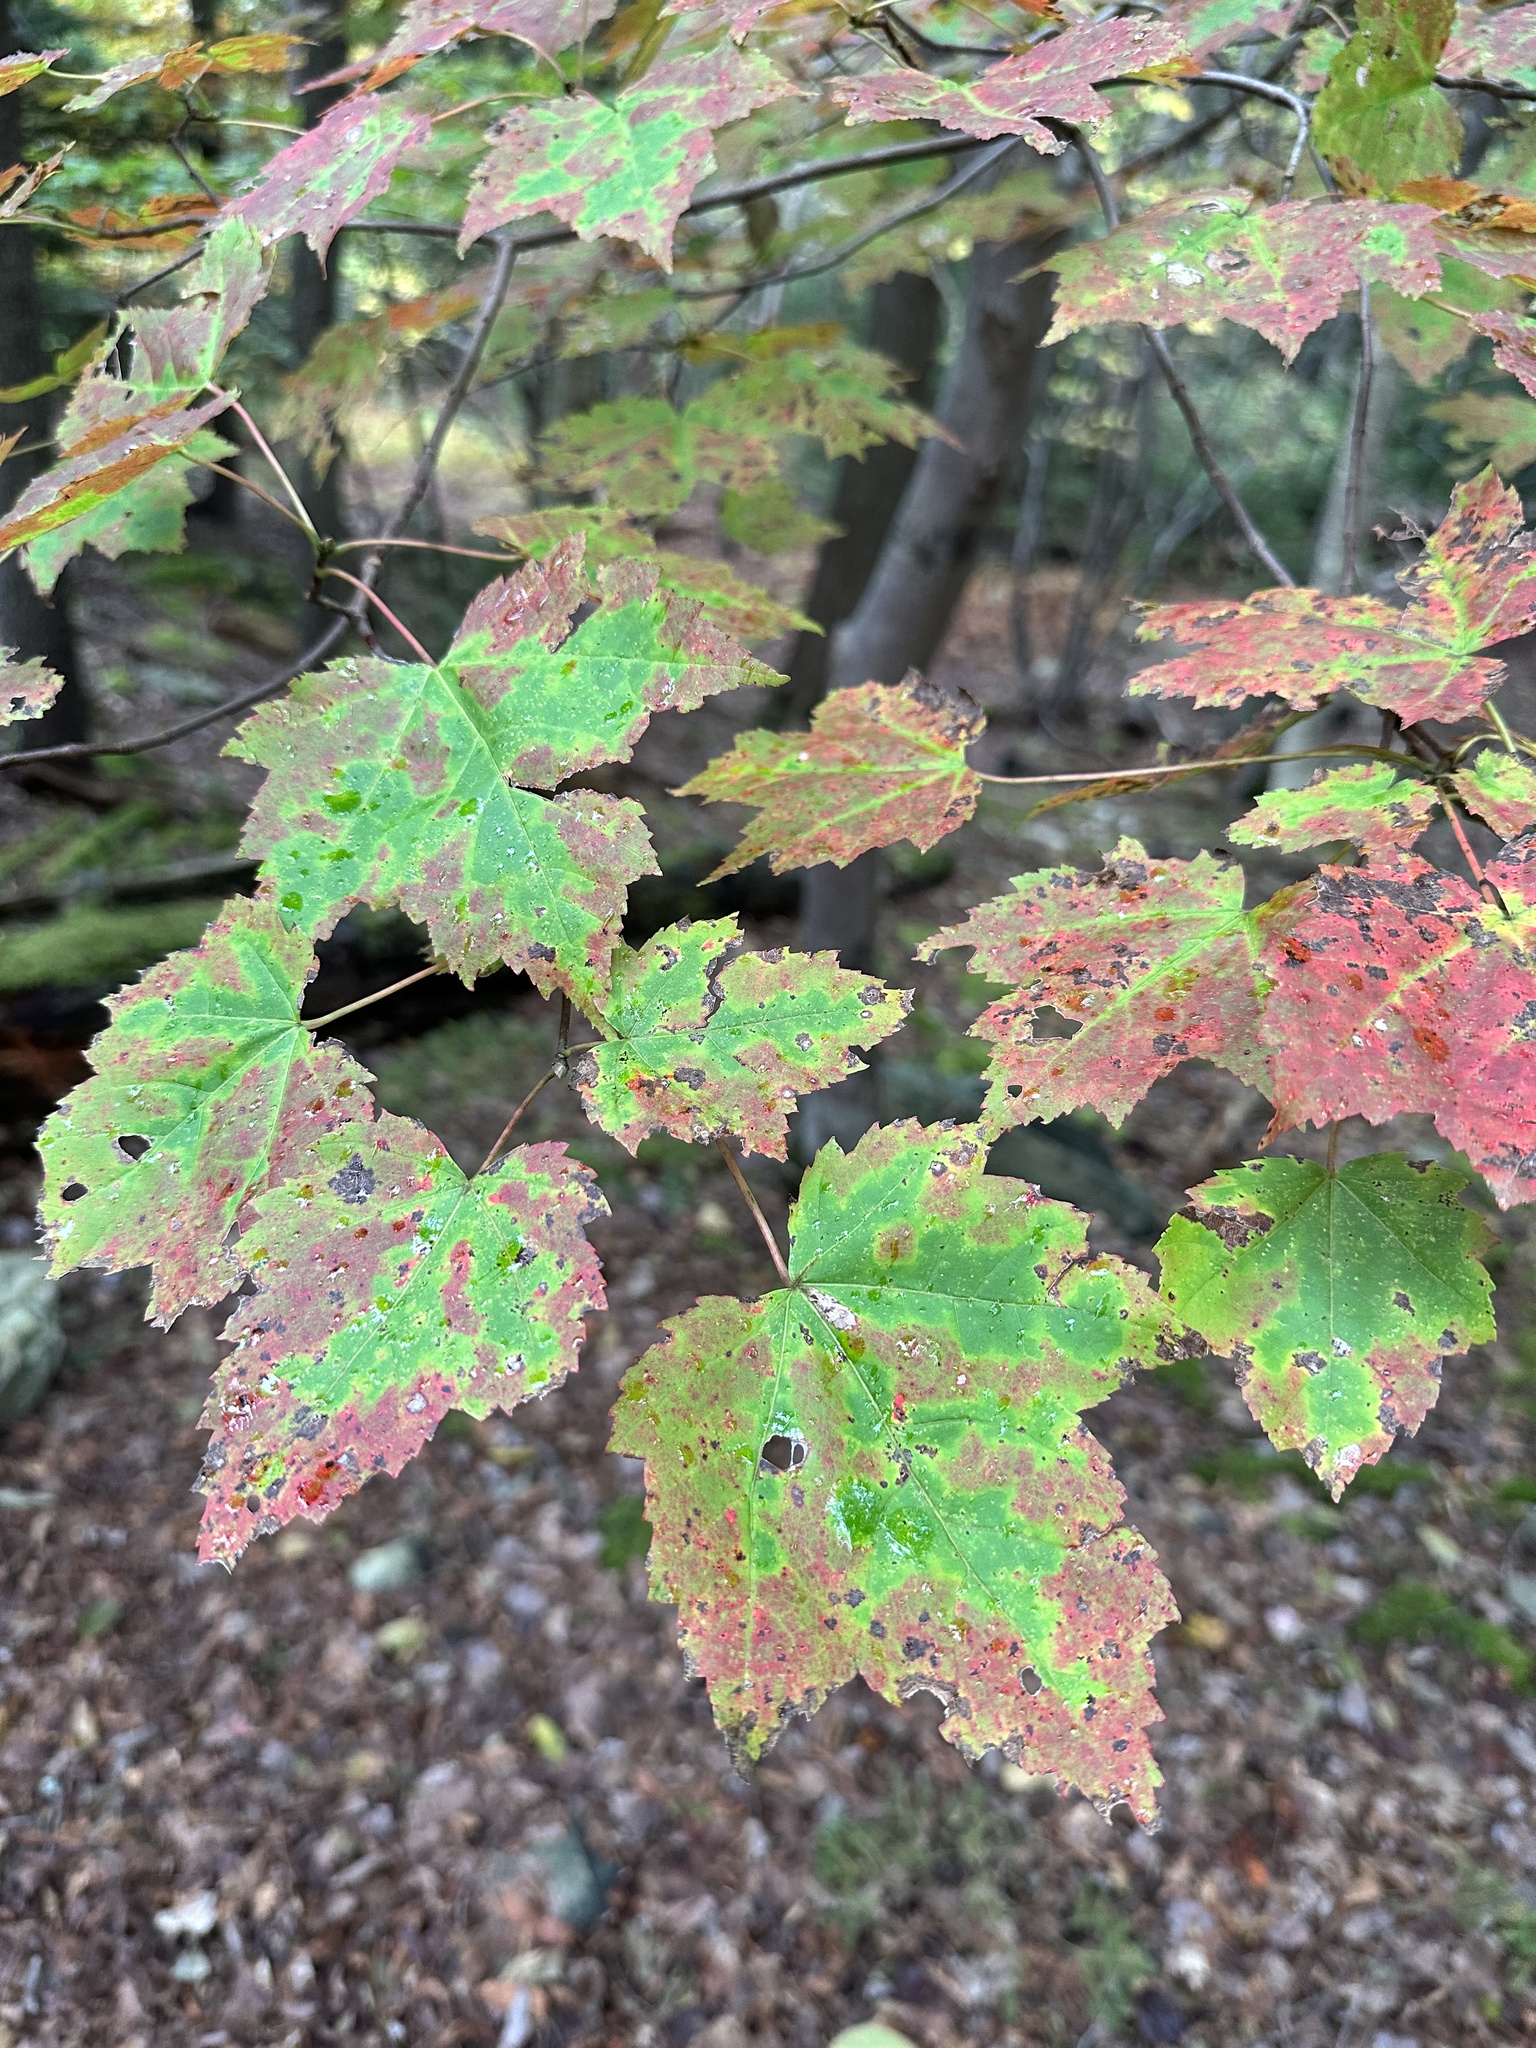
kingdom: Plantae
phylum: Tracheophyta
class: Magnoliopsida
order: Sapindales
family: Sapindaceae
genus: Acer
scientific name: Acer rubrum
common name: Red maple
